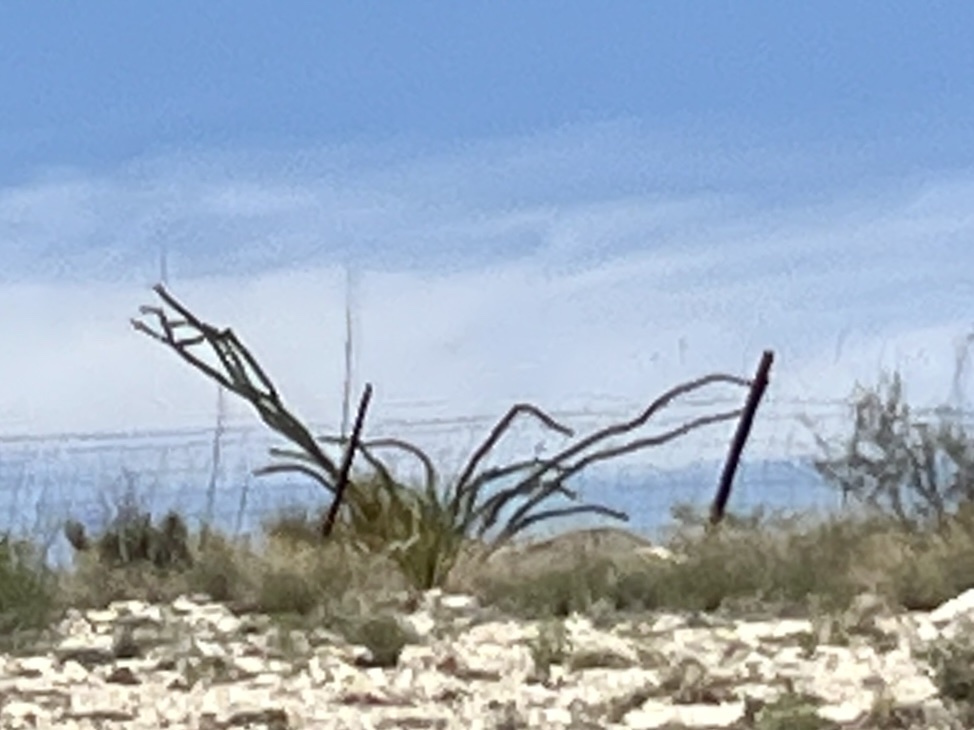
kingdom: Plantae
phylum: Tracheophyta
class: Magnoliopsida
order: Ericales
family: Fouquieriaceae
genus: Fouquieria
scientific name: Fouquieria splendens
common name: Vine-cactus
